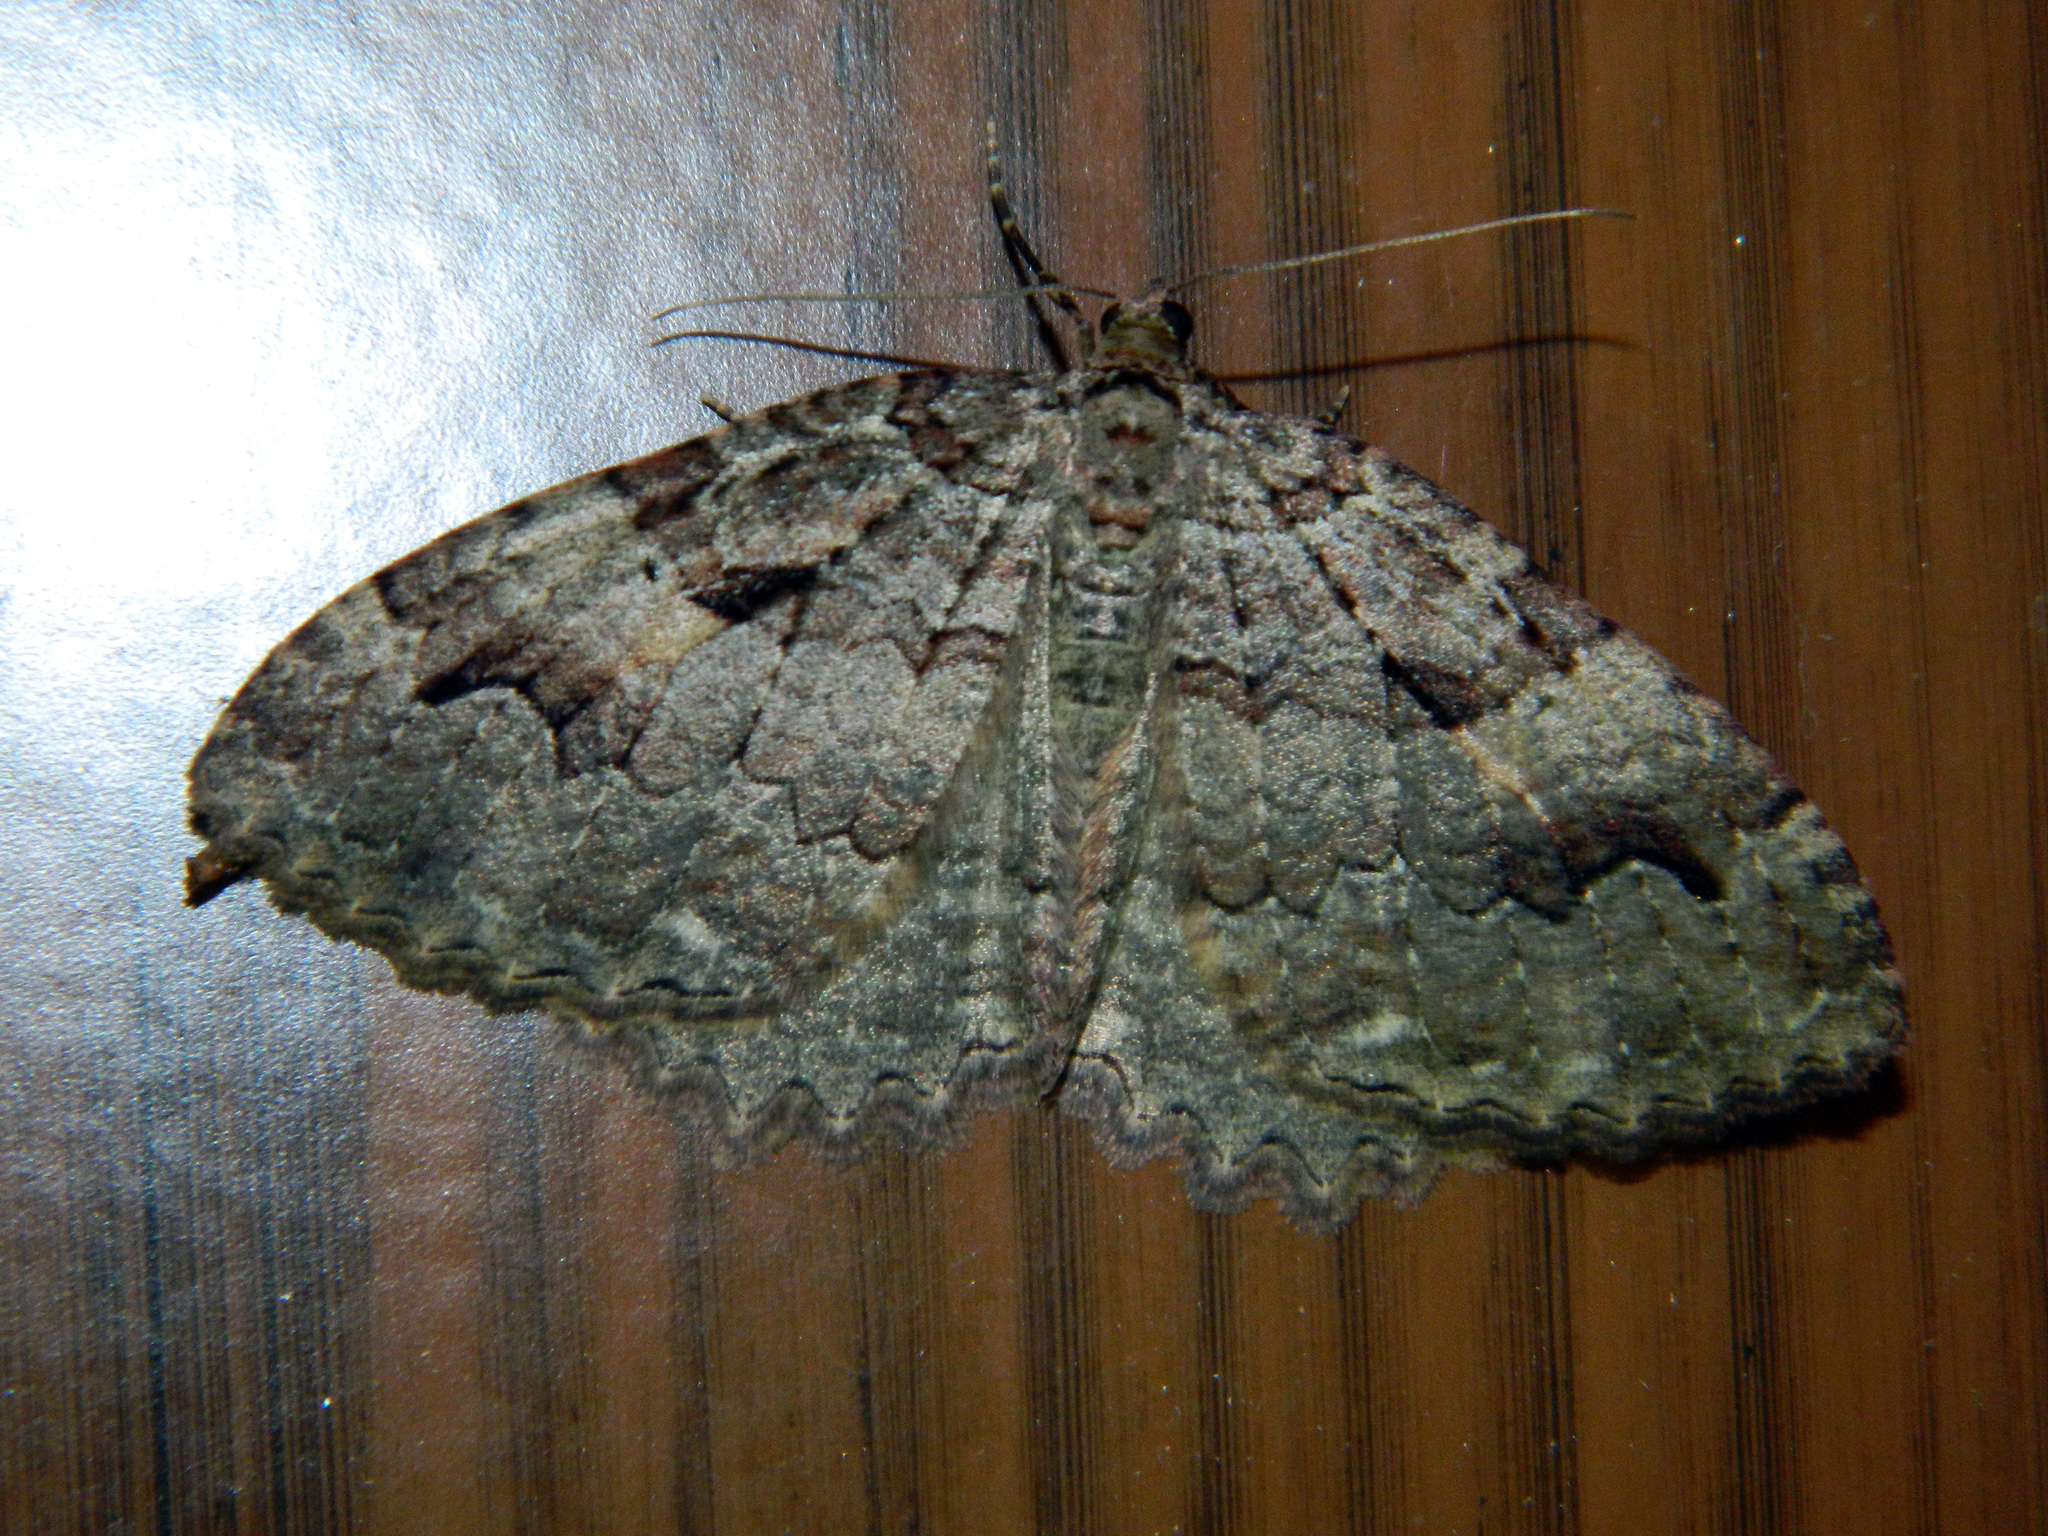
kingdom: Animalia
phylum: Arthropoda
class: Insecta
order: Lepidoptera
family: Geometridae
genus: Triphosa
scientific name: Triphosa haesitata
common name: Tissue moth
